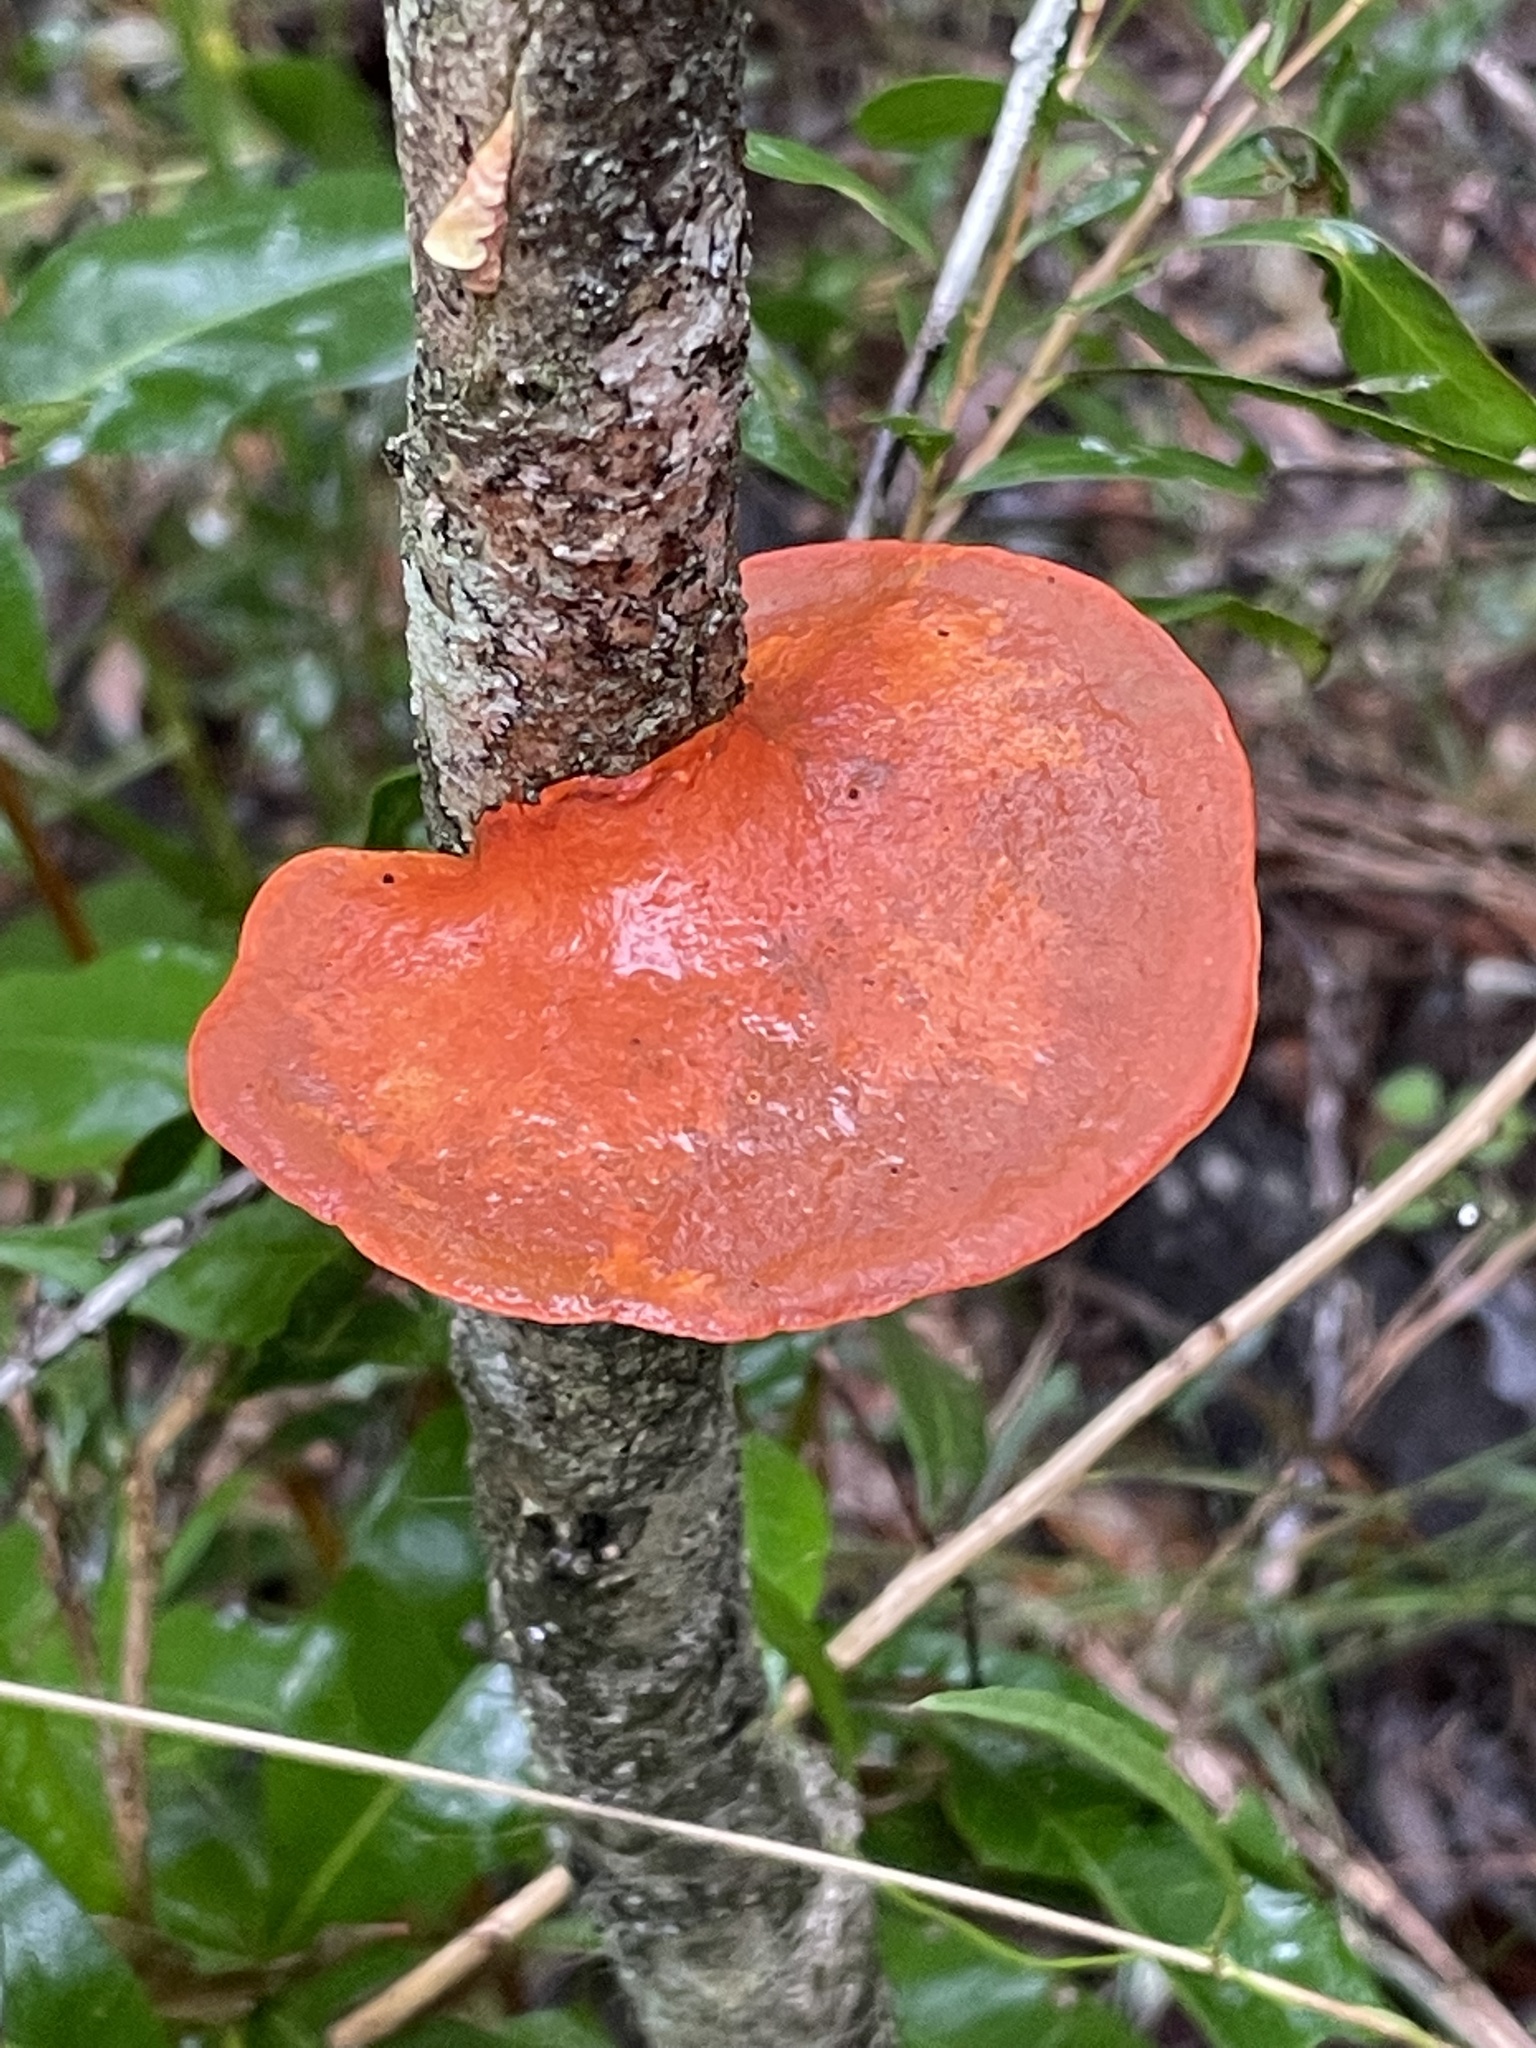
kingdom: Fungi
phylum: Basidiomycota
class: Agaricomycetes
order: Polyporales
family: Polyporaceae
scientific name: Polyporaceae
